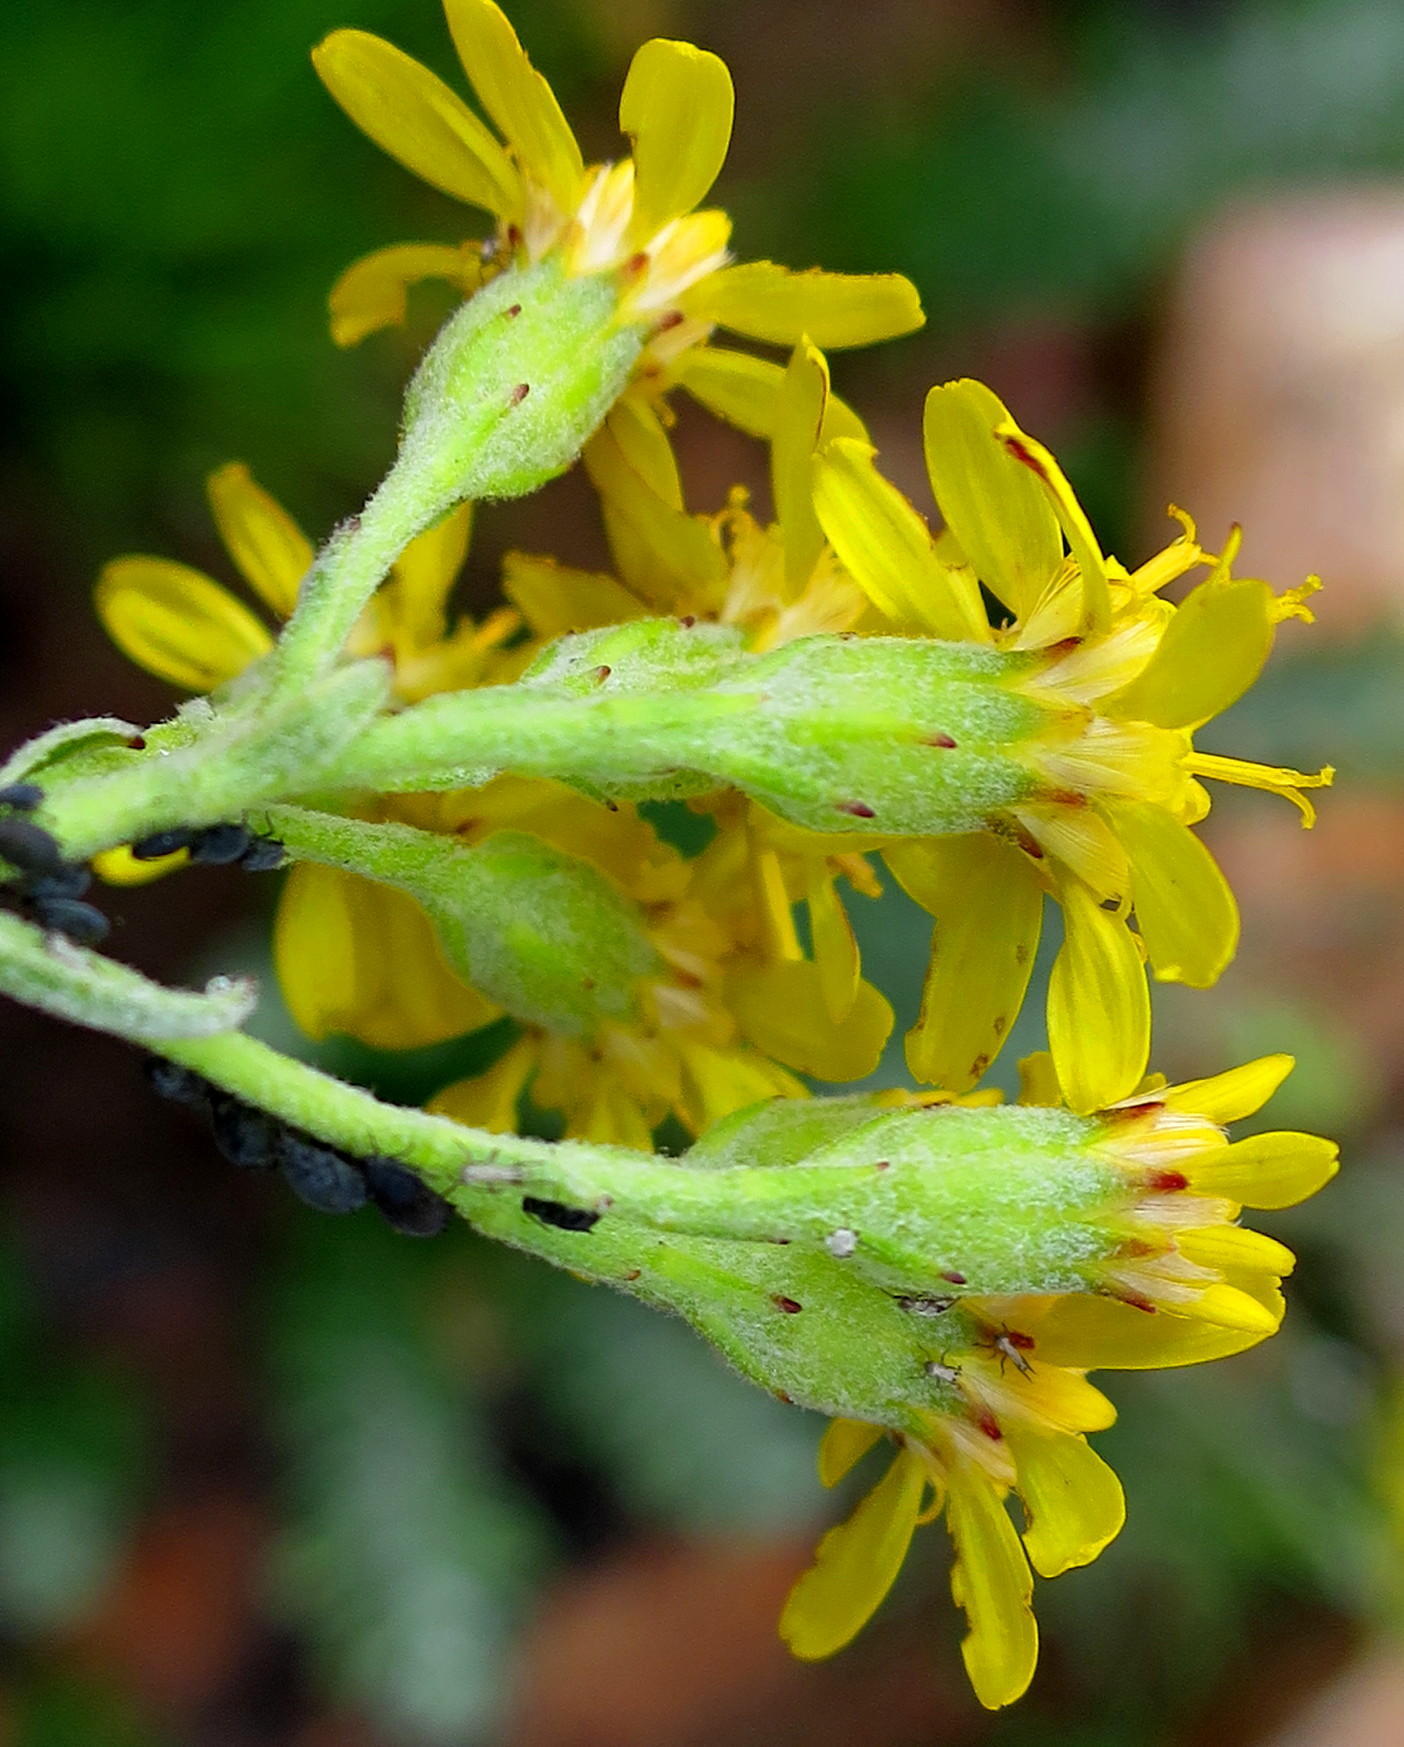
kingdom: Plantae
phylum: Tracheophyta
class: Magnoliopsida
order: Asterales
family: Asteraceae
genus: Senecio
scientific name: Senecio lineatus
